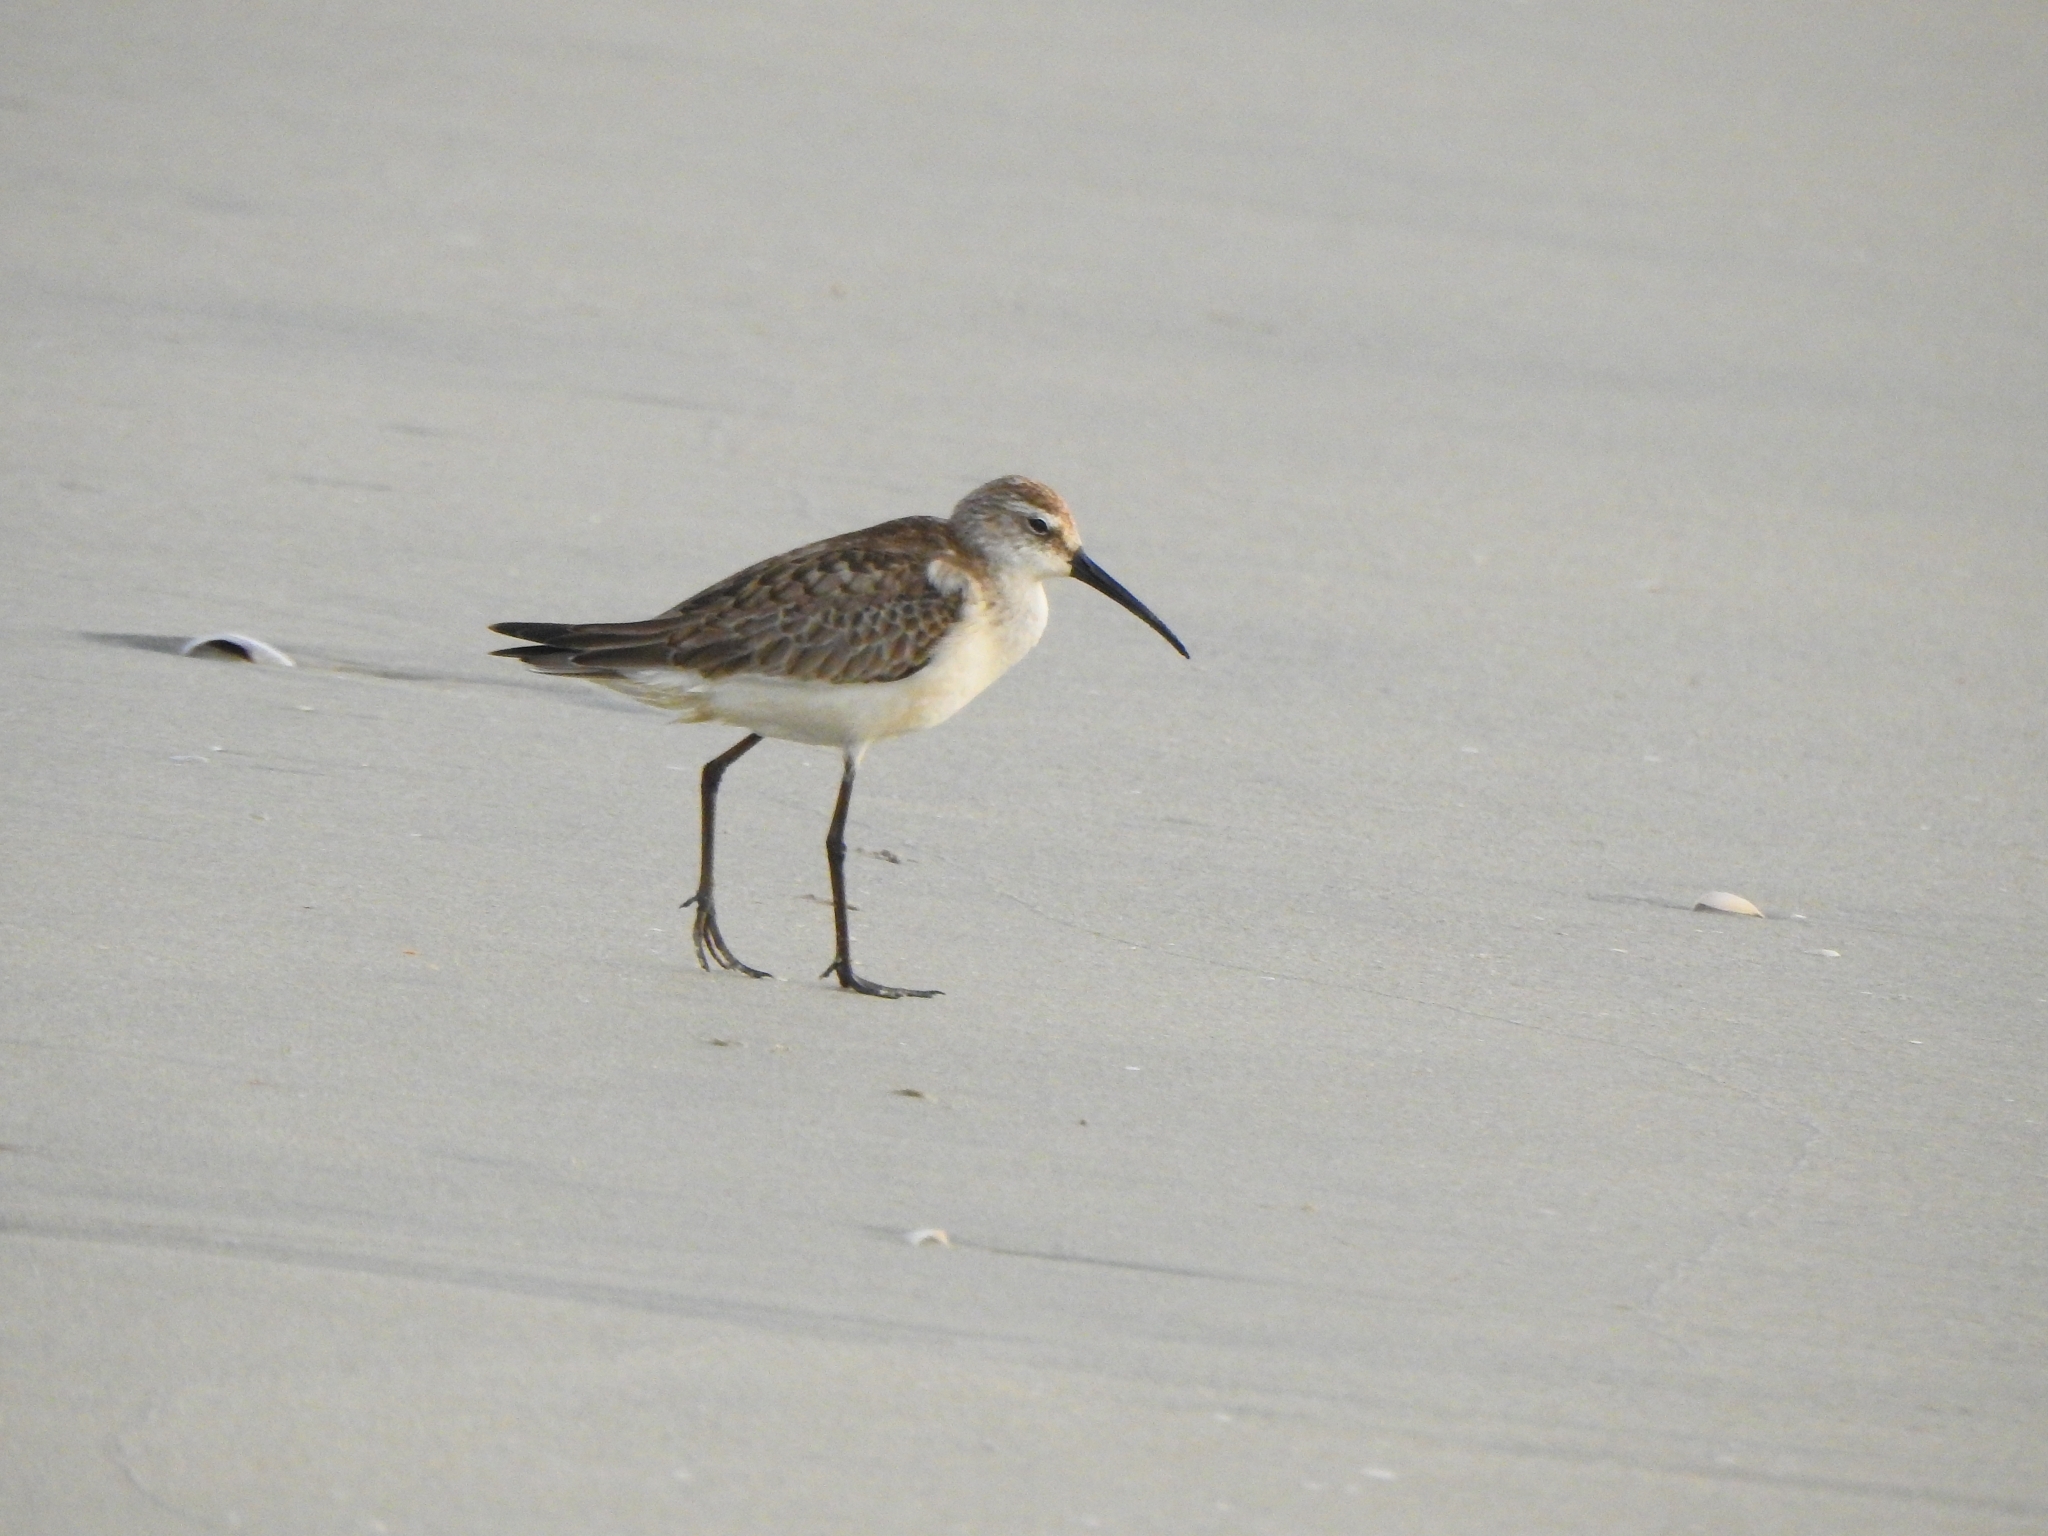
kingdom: Animalia
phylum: Chordata
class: Aves
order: Charadriiformes
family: Scolopacidae
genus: Calidris
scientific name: Calidris ferruginea
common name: Curlew sandpiper
